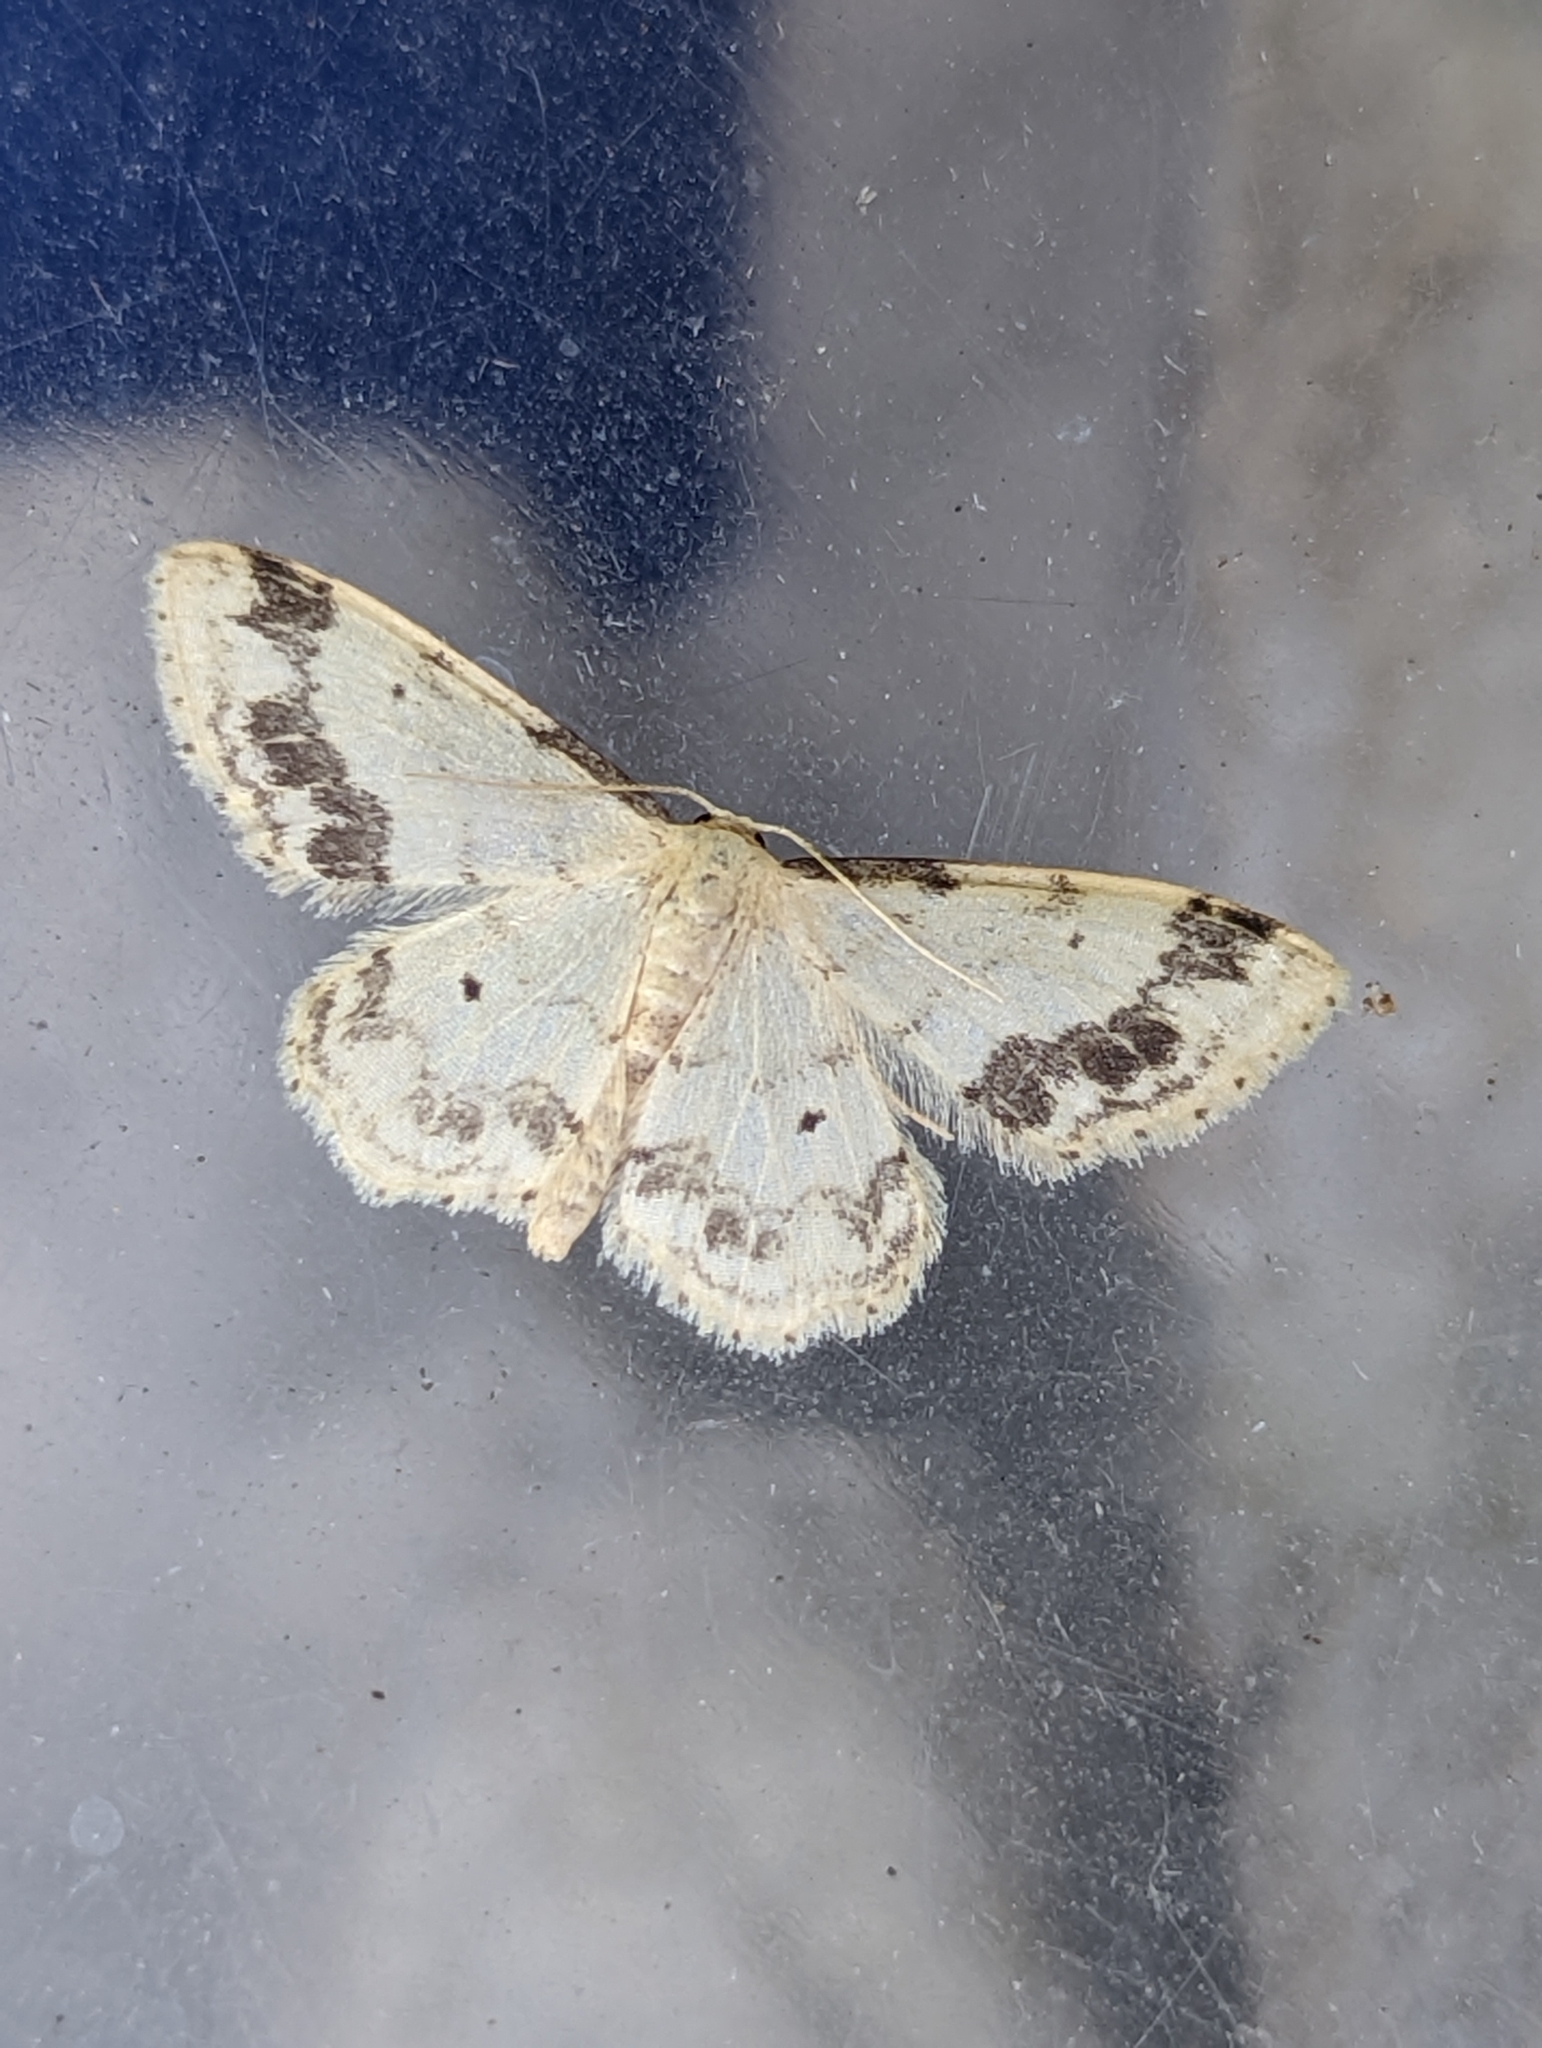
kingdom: Animalia
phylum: Arthropoda
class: Insecta
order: Lepidoptera
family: Geometridae
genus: Idaea
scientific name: Idaea trigeminata
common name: Treble brown spot
